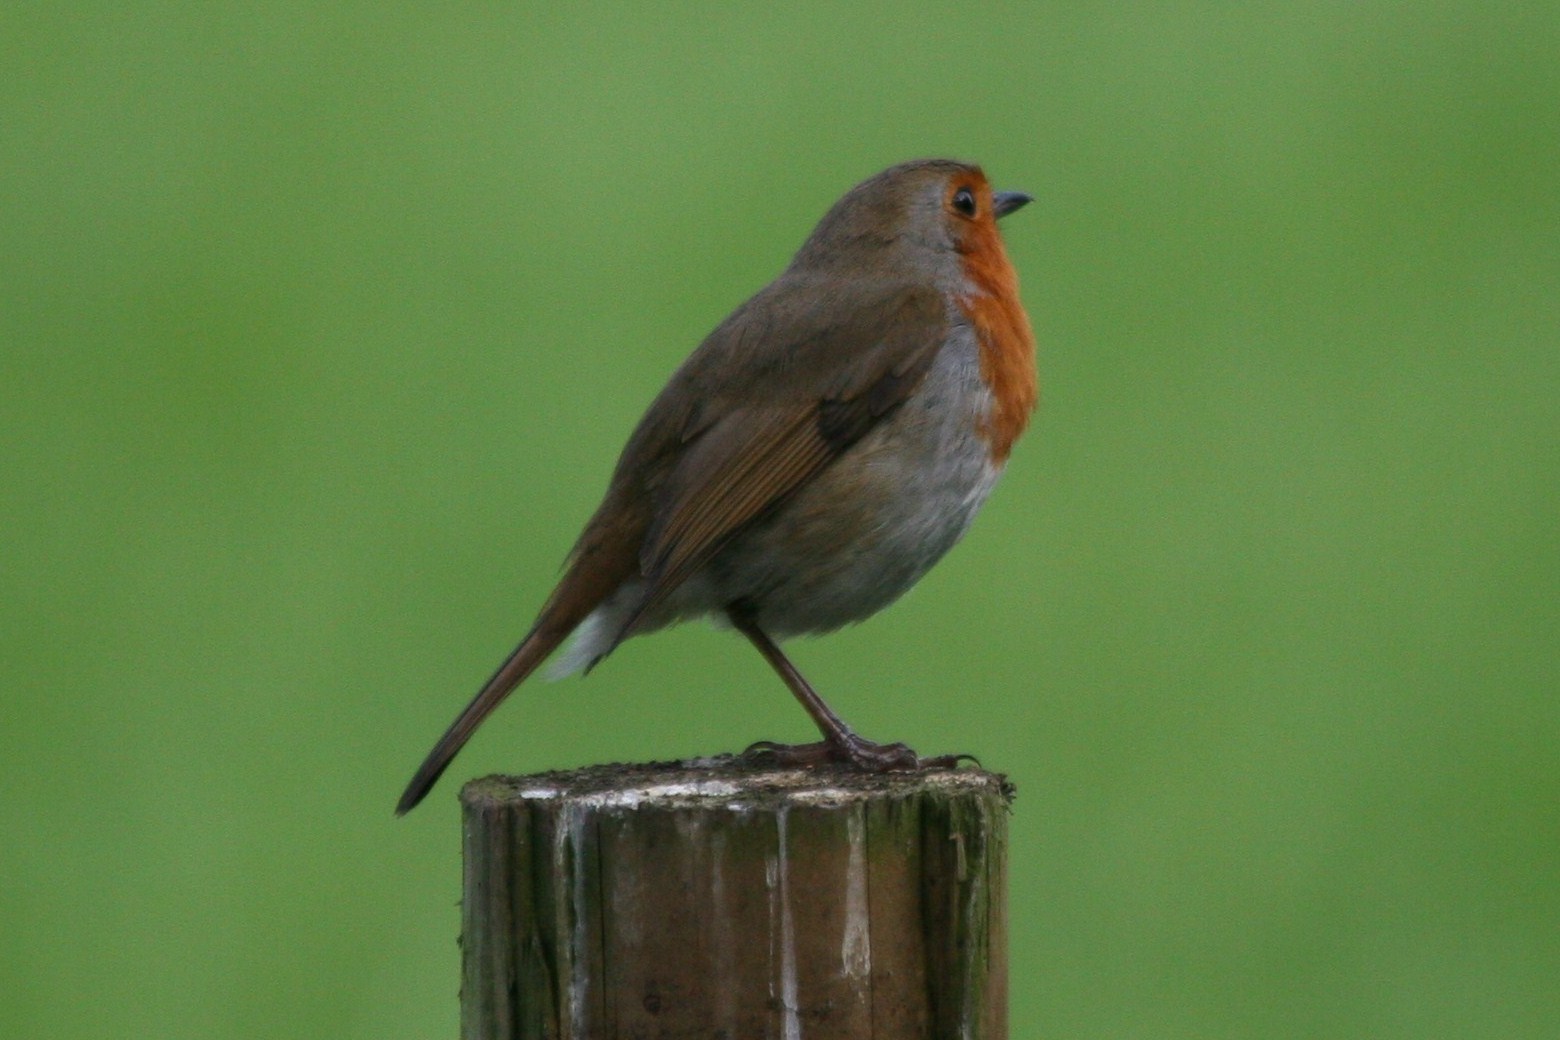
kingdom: Animalia
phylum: Chordata
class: Aves
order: Passeriformes
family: Muscicapidae
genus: Erithacus
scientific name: Erithacus rubecula
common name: European robin
